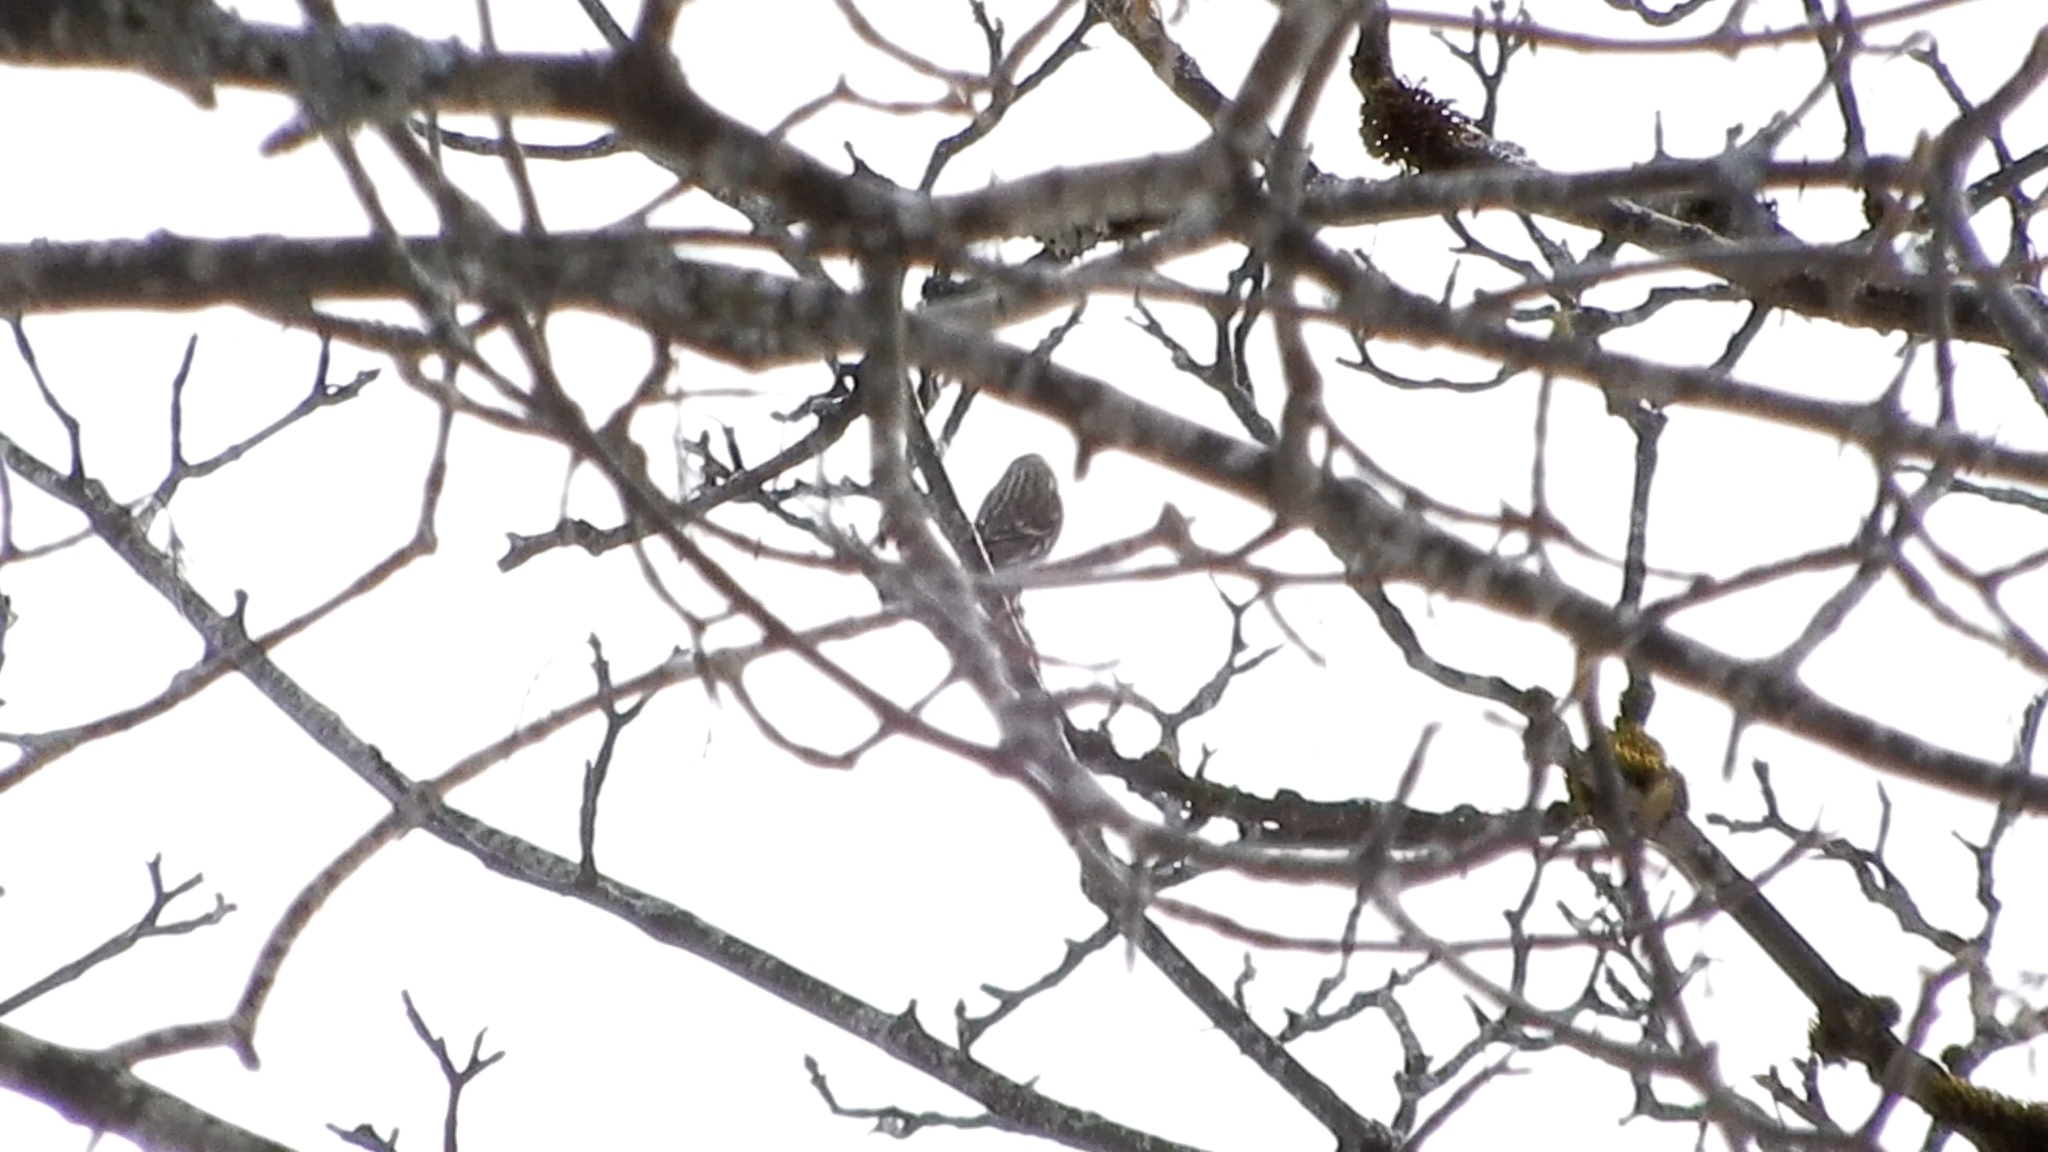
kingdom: Animalia
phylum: Chordata
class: Aves
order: Passeriformes
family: Fringillidae
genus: Spinus
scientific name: Spinus spinus
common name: Eurasian siskin
